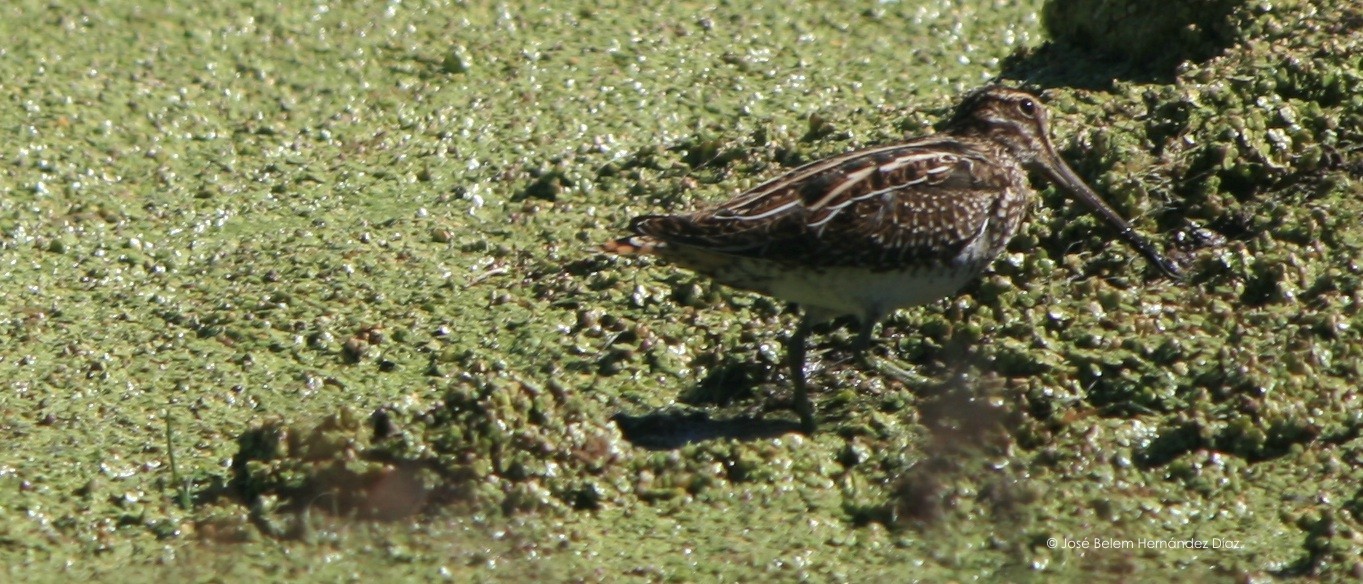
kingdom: Animalia
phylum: Chordata
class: Aves
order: Charadriiformes
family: Scolopacidae
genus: Gallinago
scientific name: Gallinago delicata
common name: Wilson's snipe
